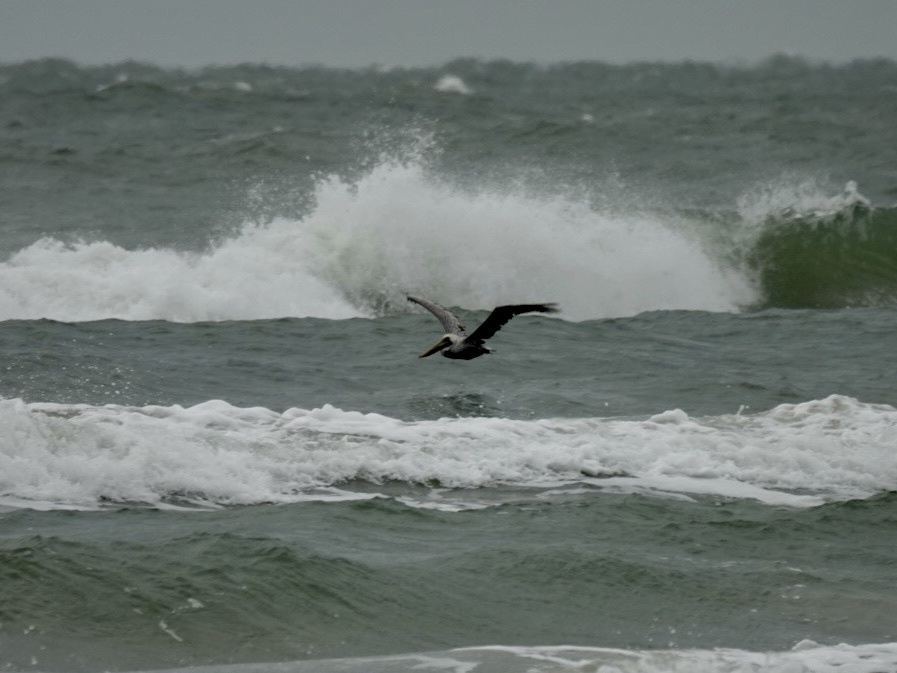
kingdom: Animalia
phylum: Chordata
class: Aves
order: Pelecaniformes
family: Pelecanidae
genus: Pelecanus
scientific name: Pelecanus occidentalis
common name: Brown pelican
